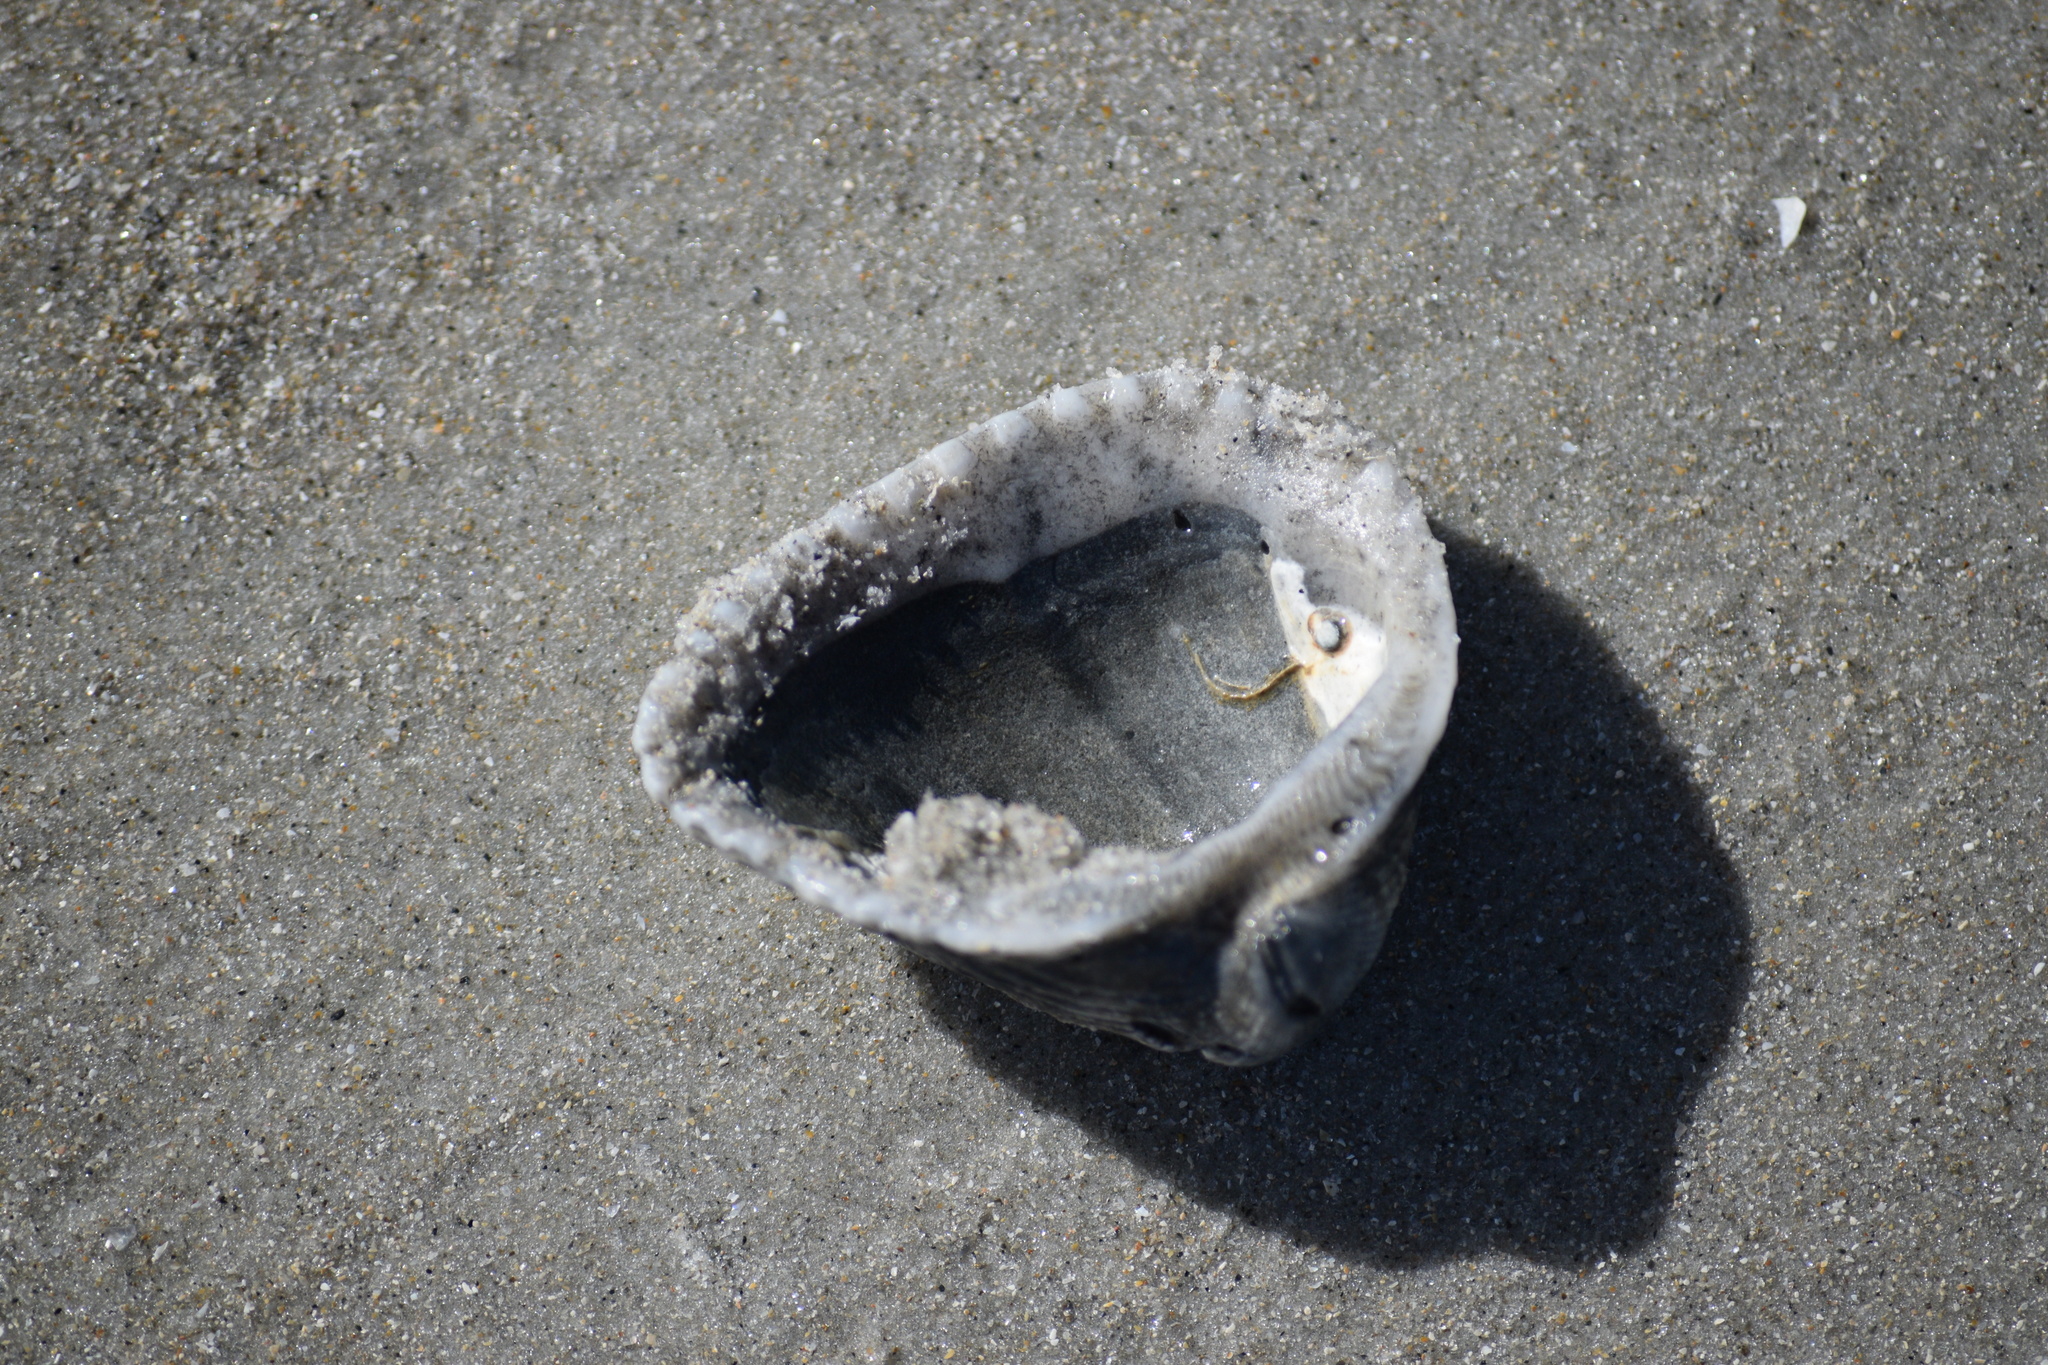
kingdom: Animalia
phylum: Mollusca
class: Bivalvia
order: Arcida
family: Noetiidae
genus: Noetia
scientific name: Noetia ponderosa
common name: Ponderous ark
